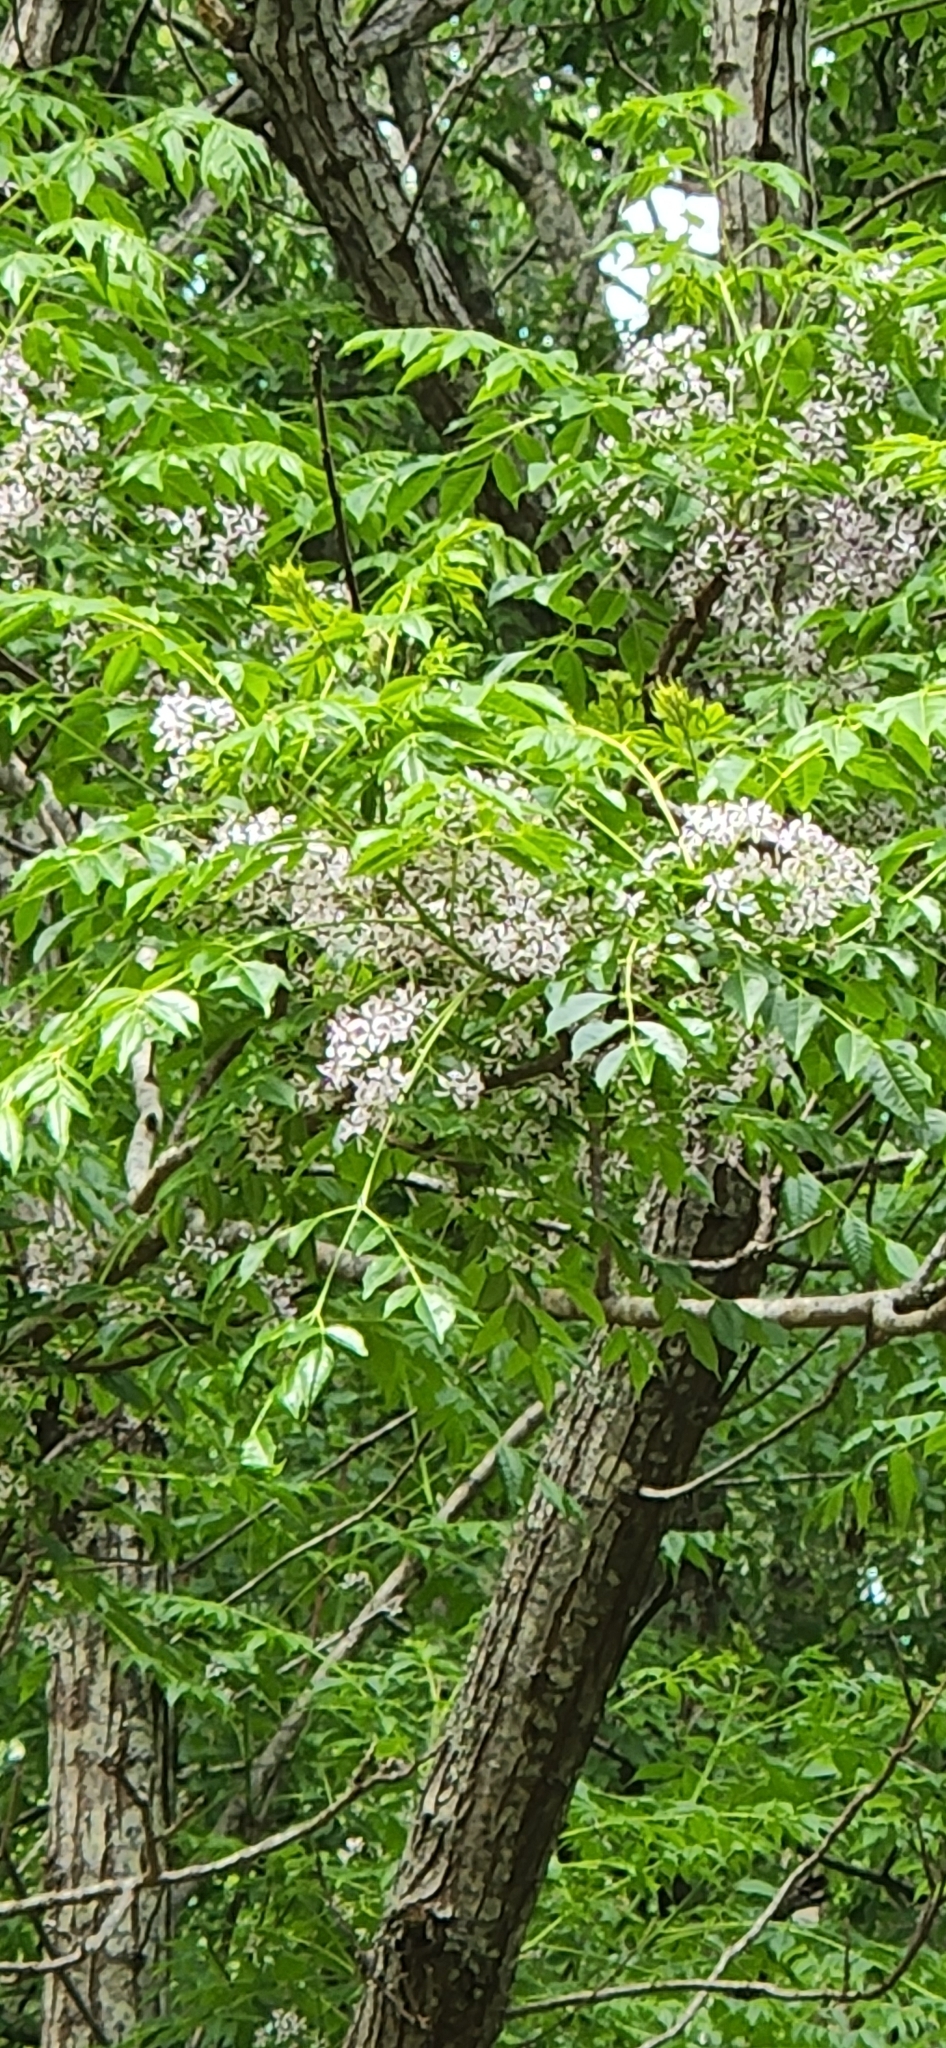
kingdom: Plantae
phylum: Tracheophyta
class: Magnoliopsida
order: Sapindales
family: Meliaceae
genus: Melia
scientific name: Melia azedarach
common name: Chinaberrytree
